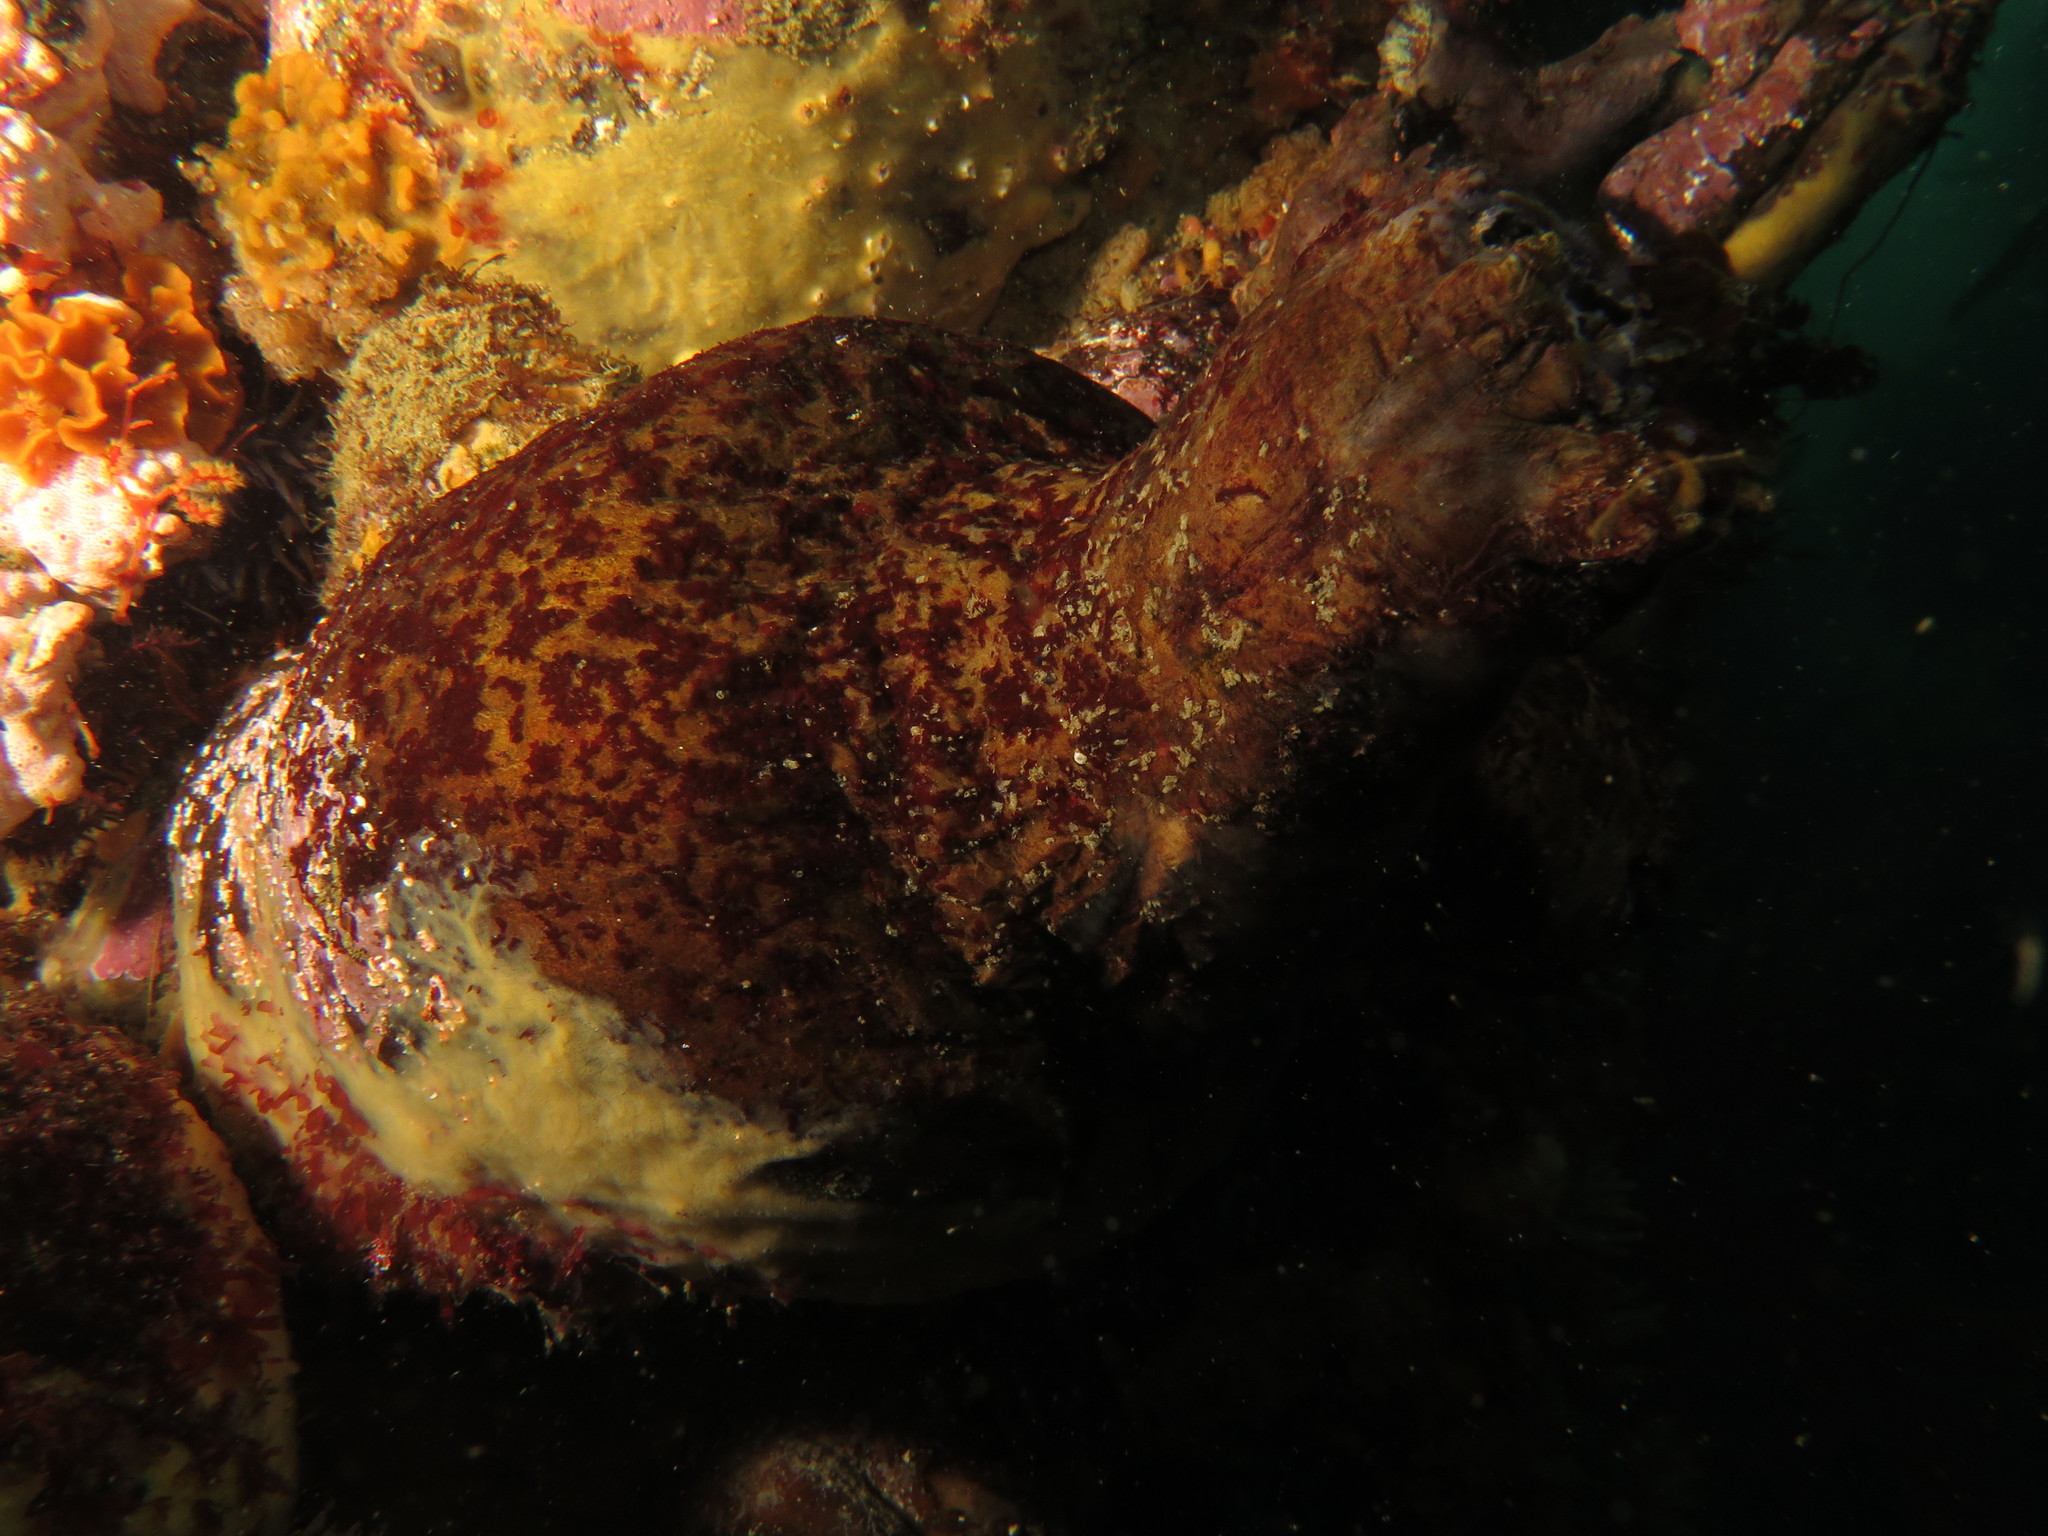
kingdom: Animalia
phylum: Chordata
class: Ascidiacea
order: Stolidobranchia
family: Pyuridae
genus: Pyura
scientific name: Pyura stolonifera
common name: Red bait
